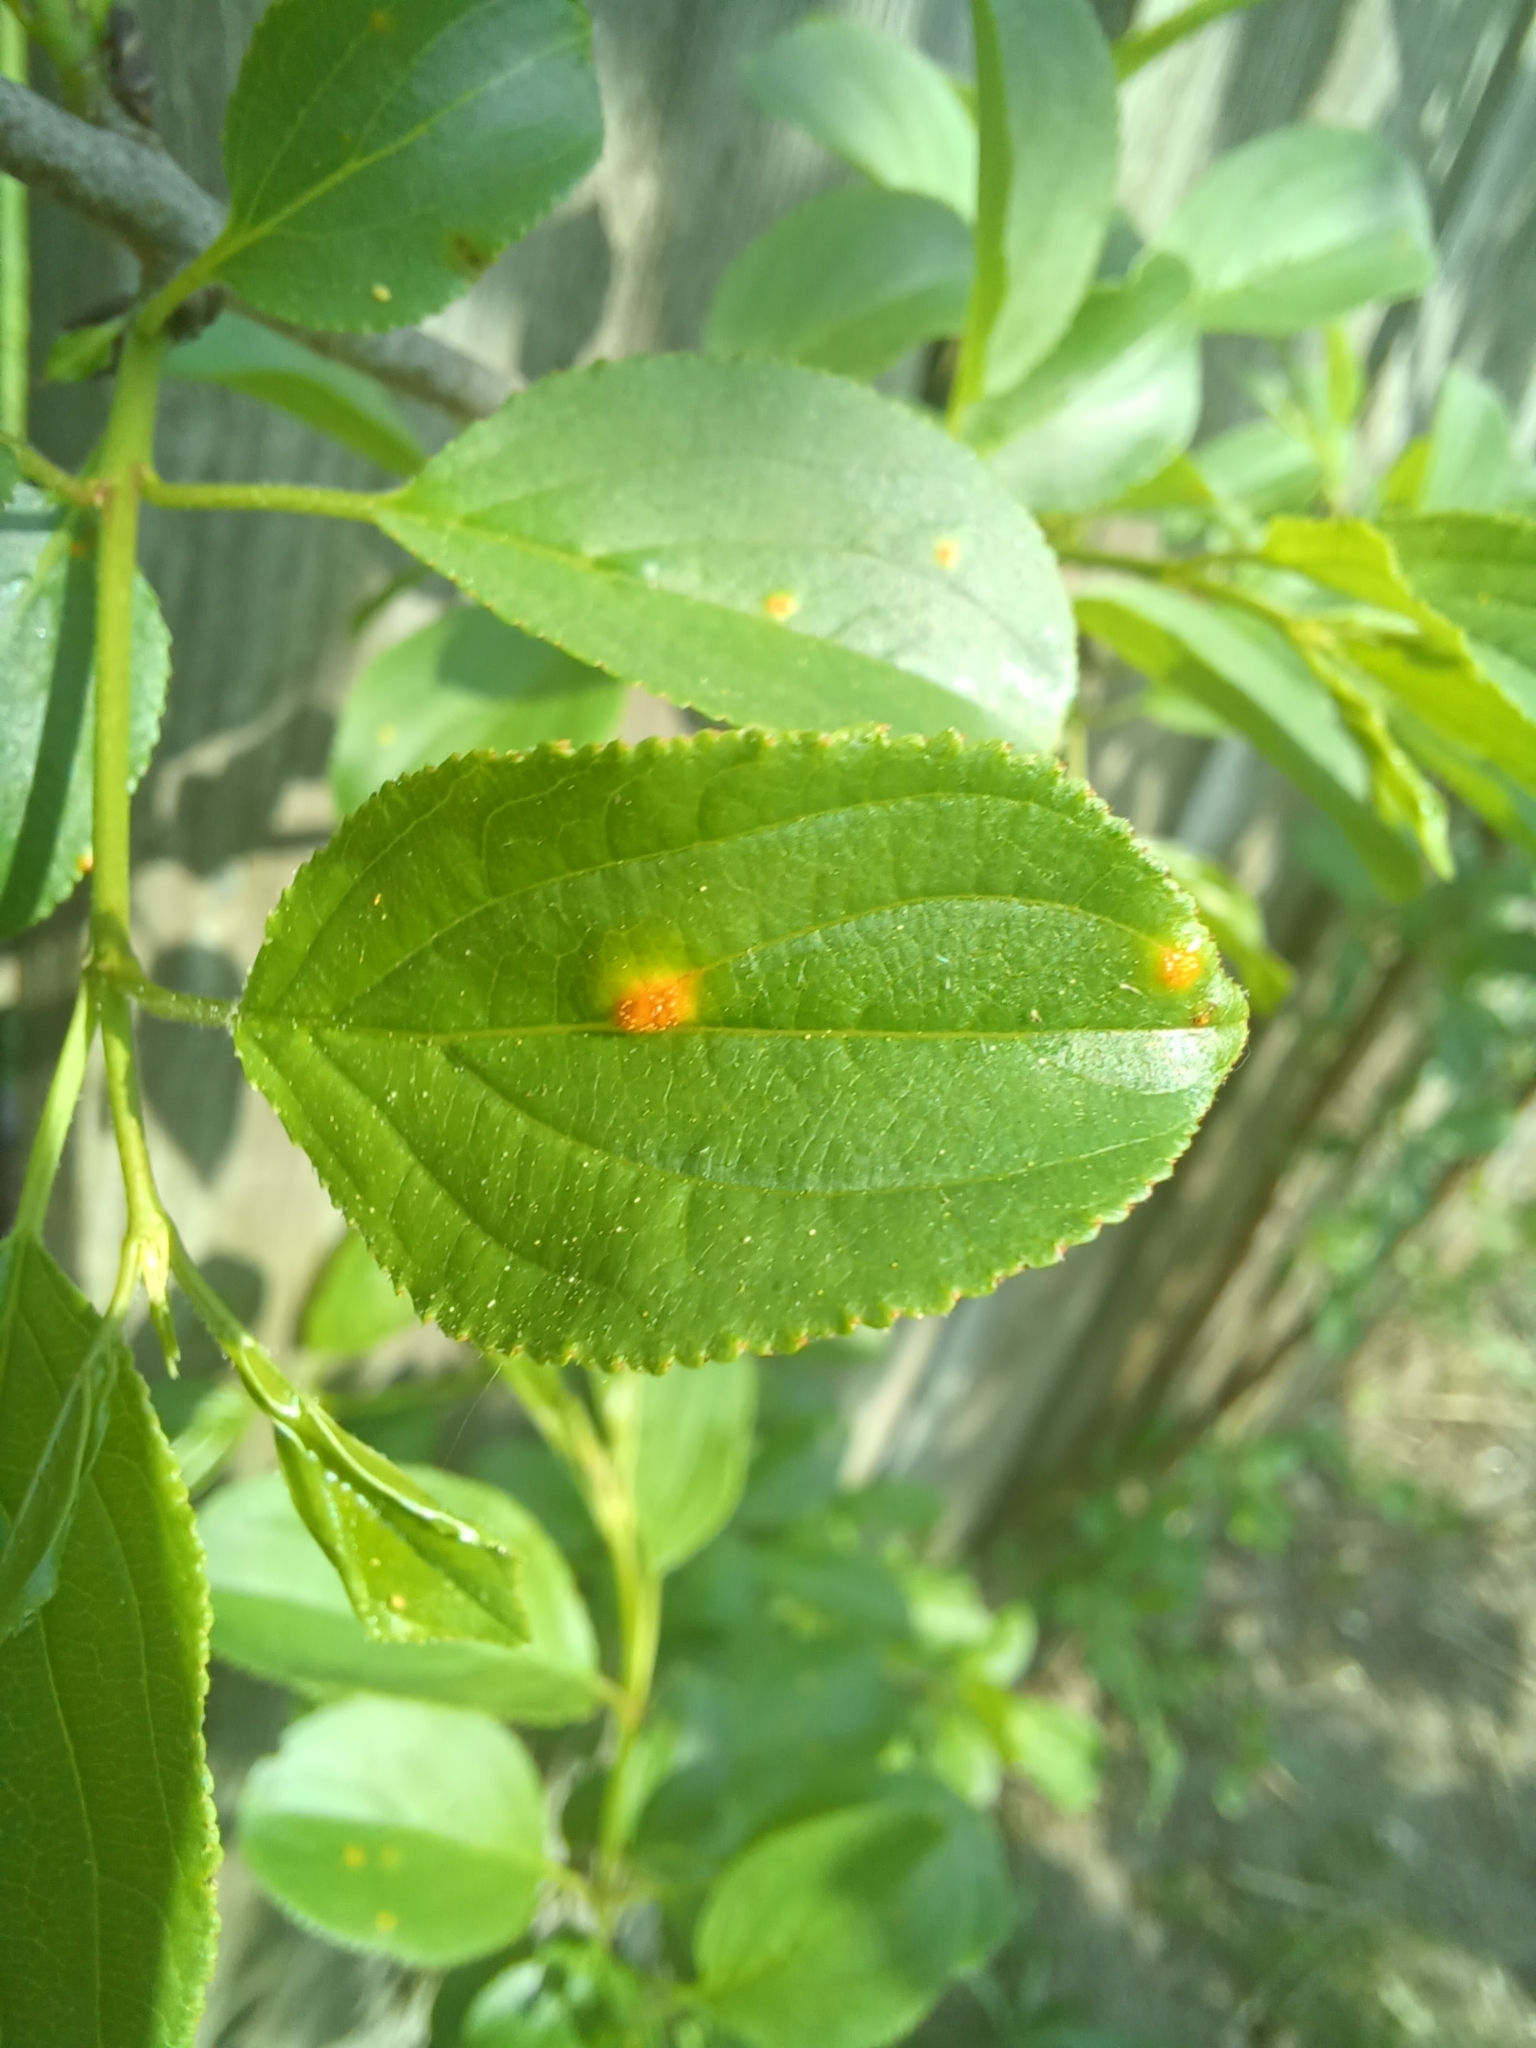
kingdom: Fungi
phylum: Basidiomycota
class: Pucciniomycetes
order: Pucciniales
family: Pucciniaceae
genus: Puccinia
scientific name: Puccinia coronata
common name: Crown rust
